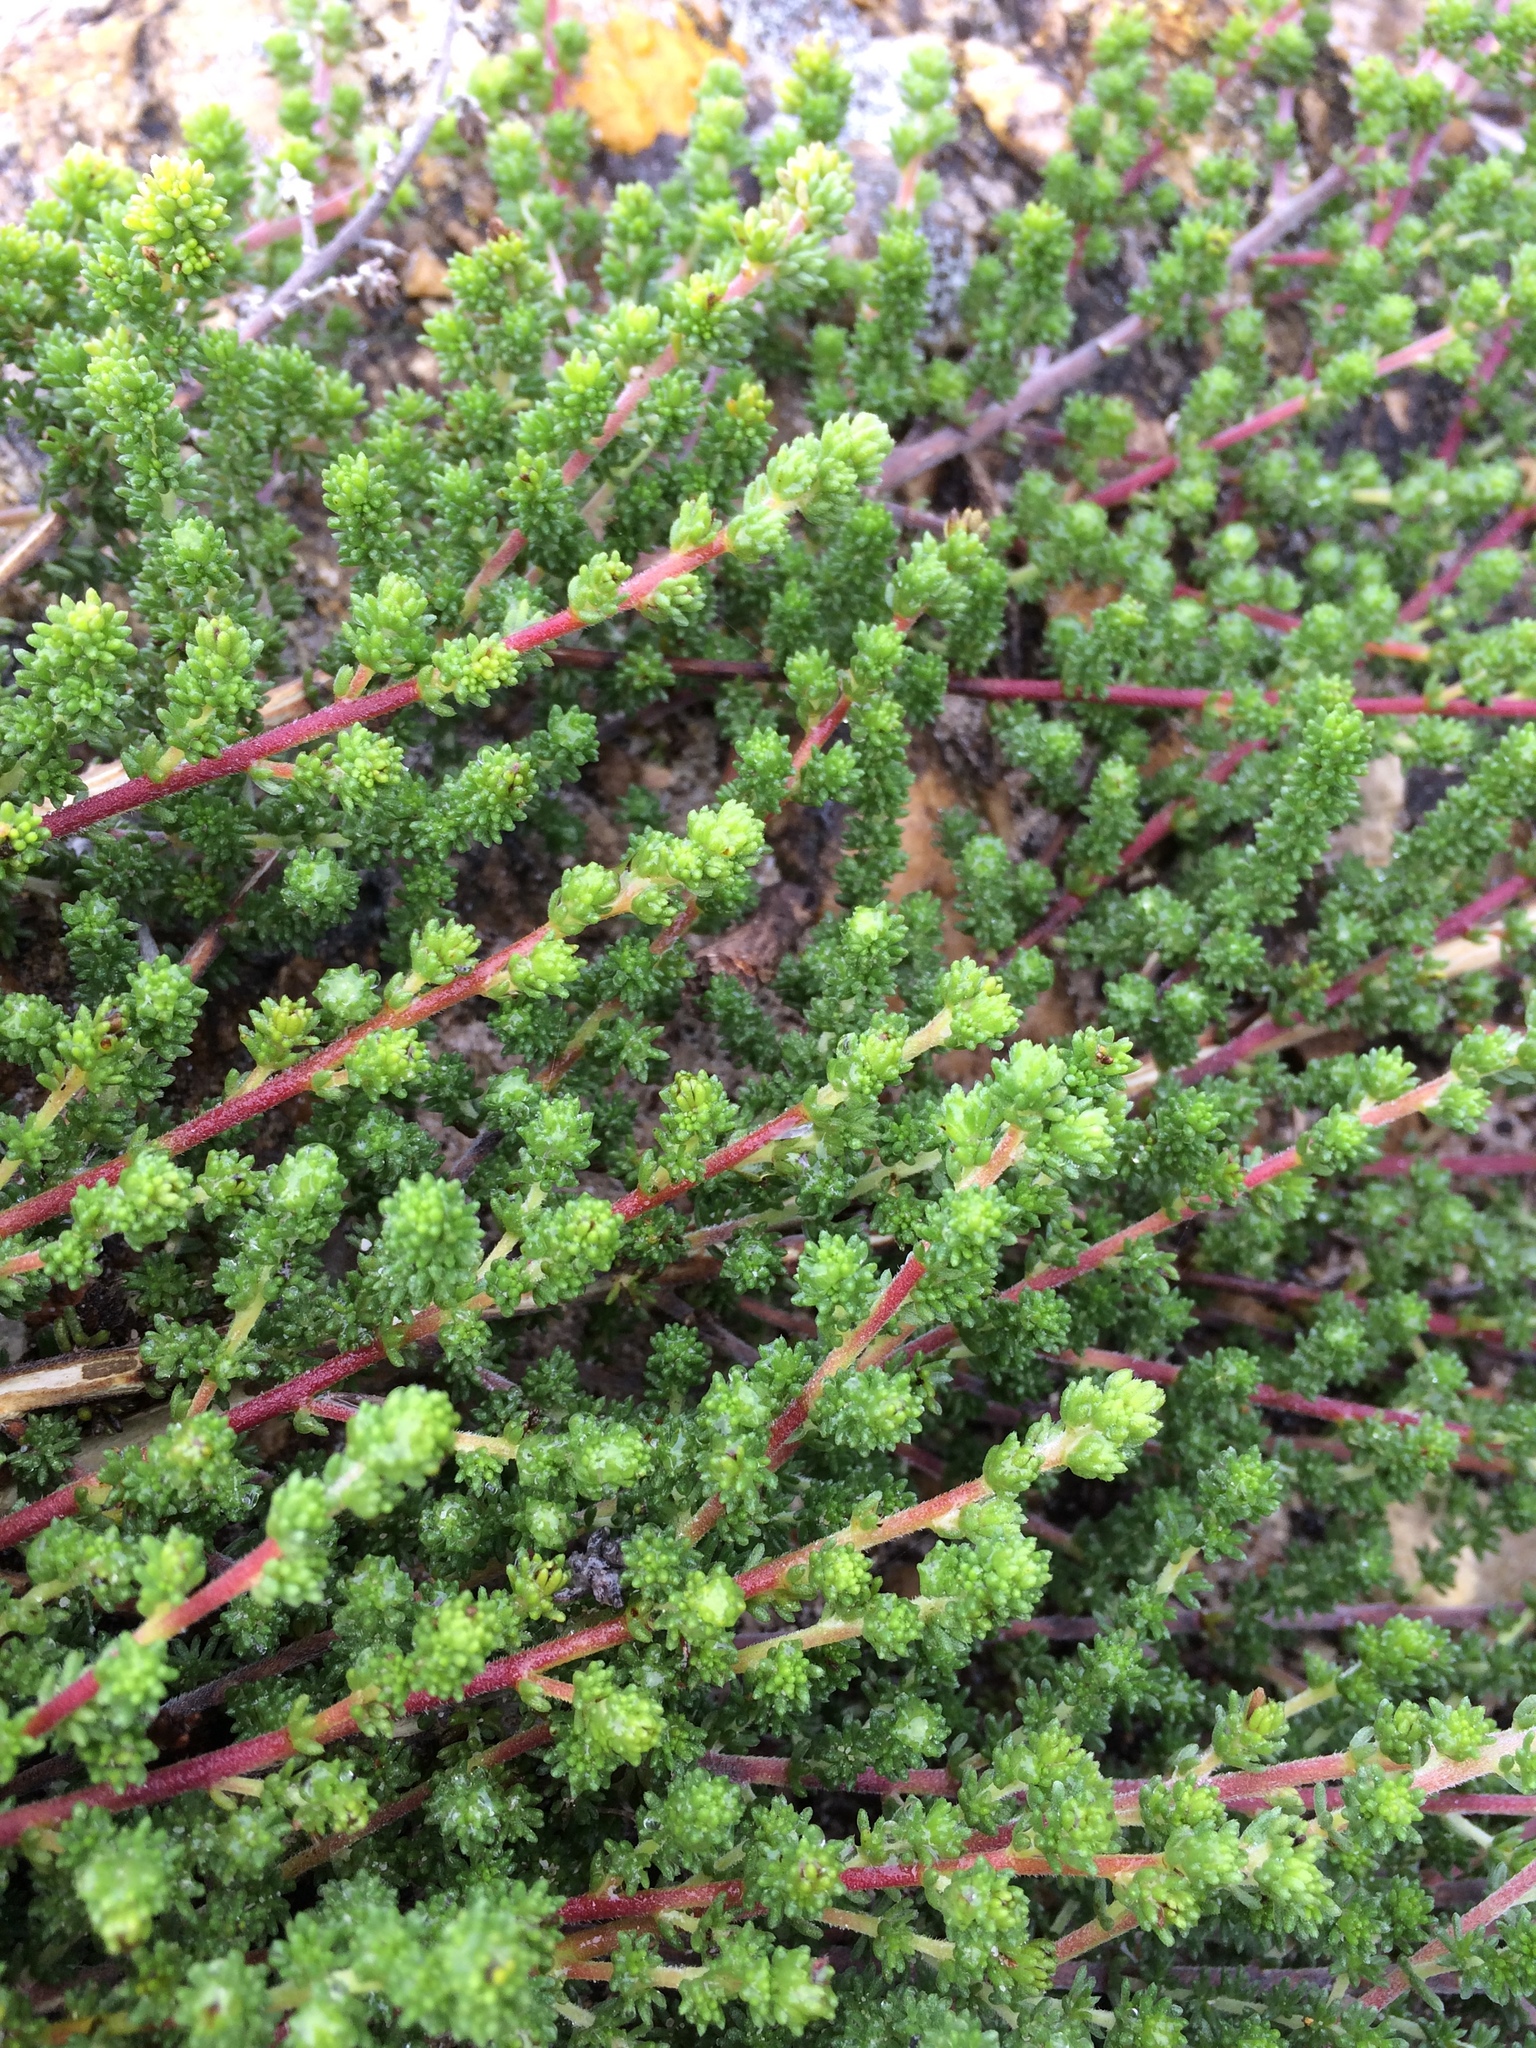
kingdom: Plantae
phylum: Tracheophyta
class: Magnoliopsida
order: Fabales
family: Fabaceae
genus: Aspalathus
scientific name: Aspalathus salteri
